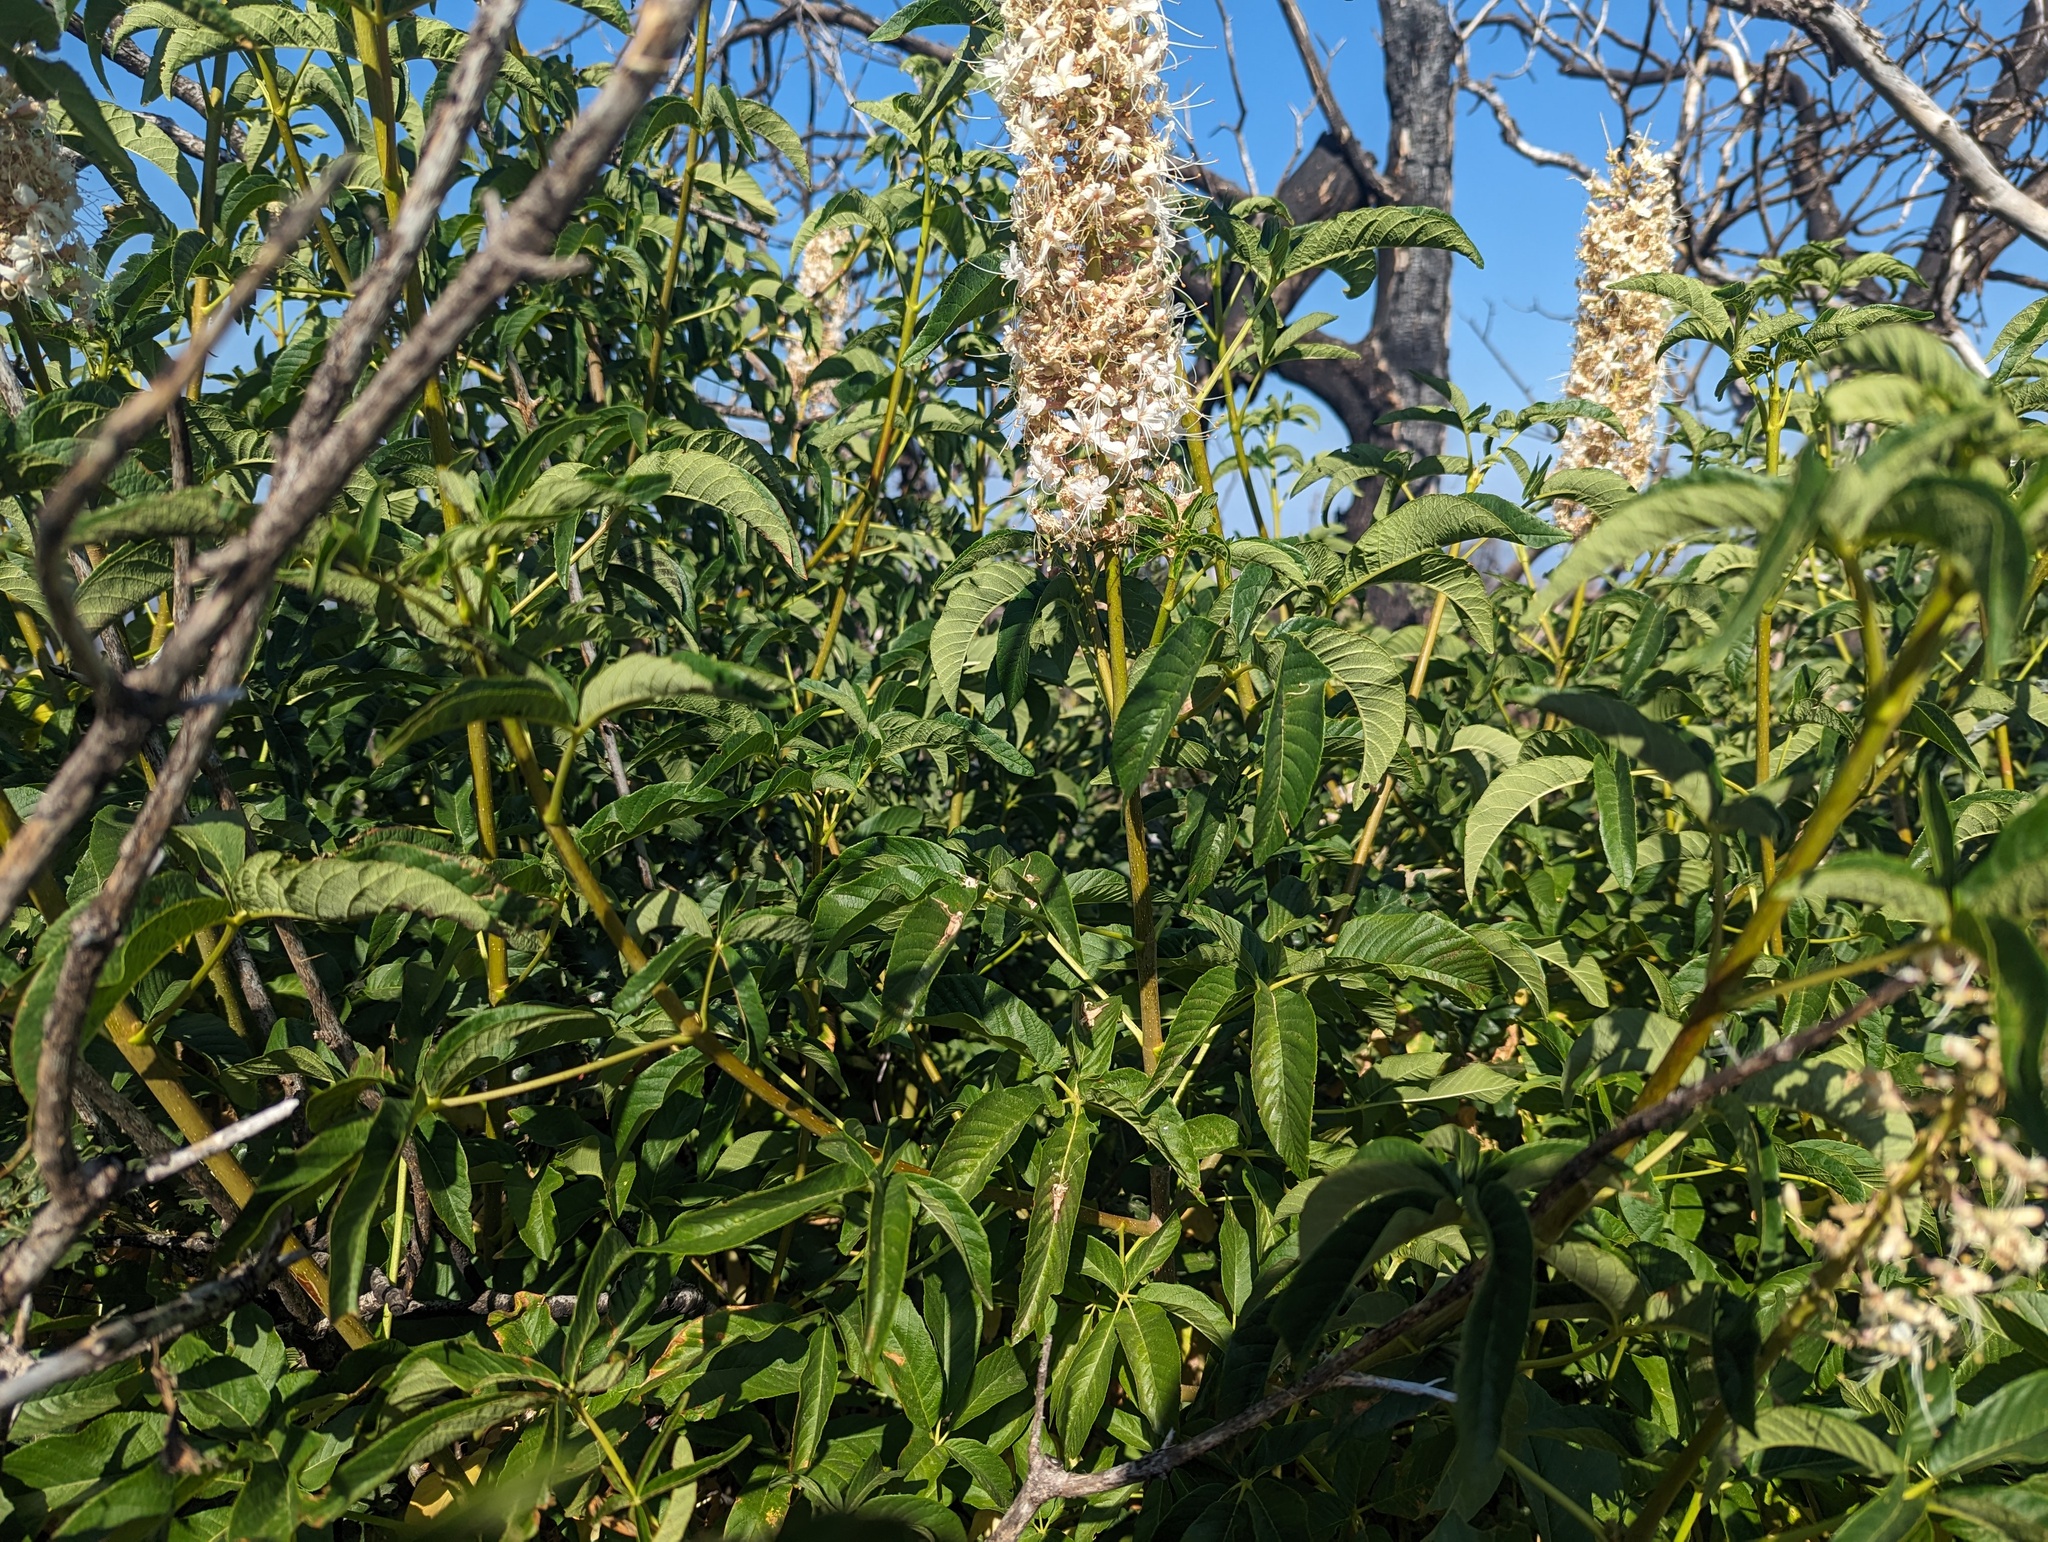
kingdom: Plantae
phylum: Tracheophyta
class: Magnoliopsida
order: Sapindales
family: Sapindaceae
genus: Aesculus
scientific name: Aesculus californica
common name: California buckeye
